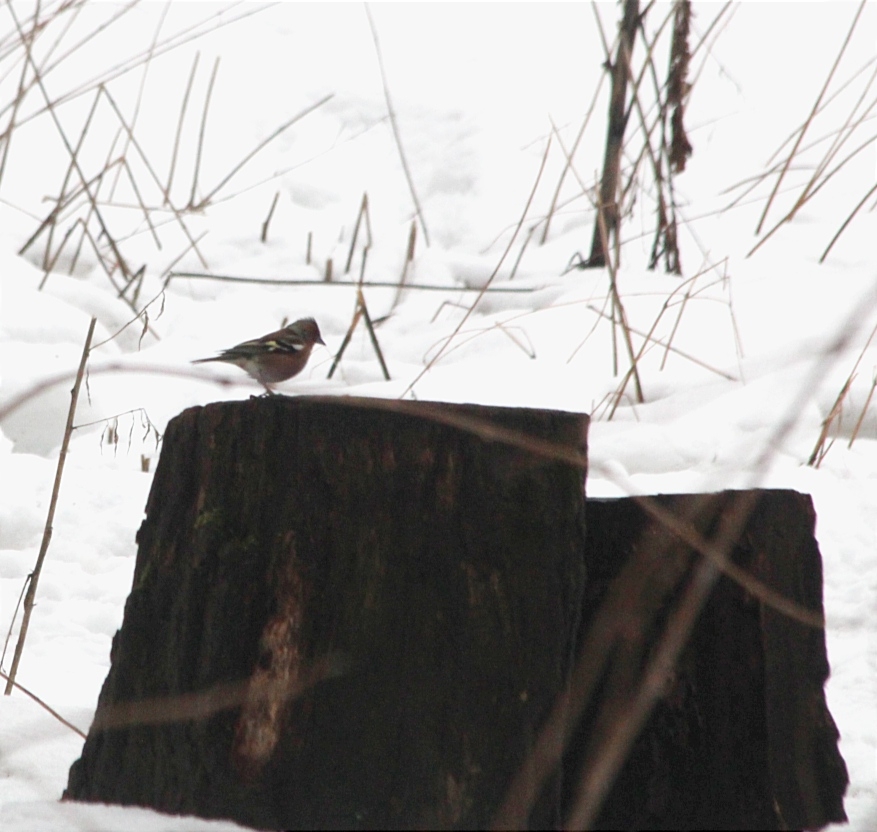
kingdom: Animalia
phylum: Chordata
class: Aves
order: Passeriformes
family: Fringillidae
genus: Fringilla
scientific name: Fringilla coelebs
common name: Common chaffinch
